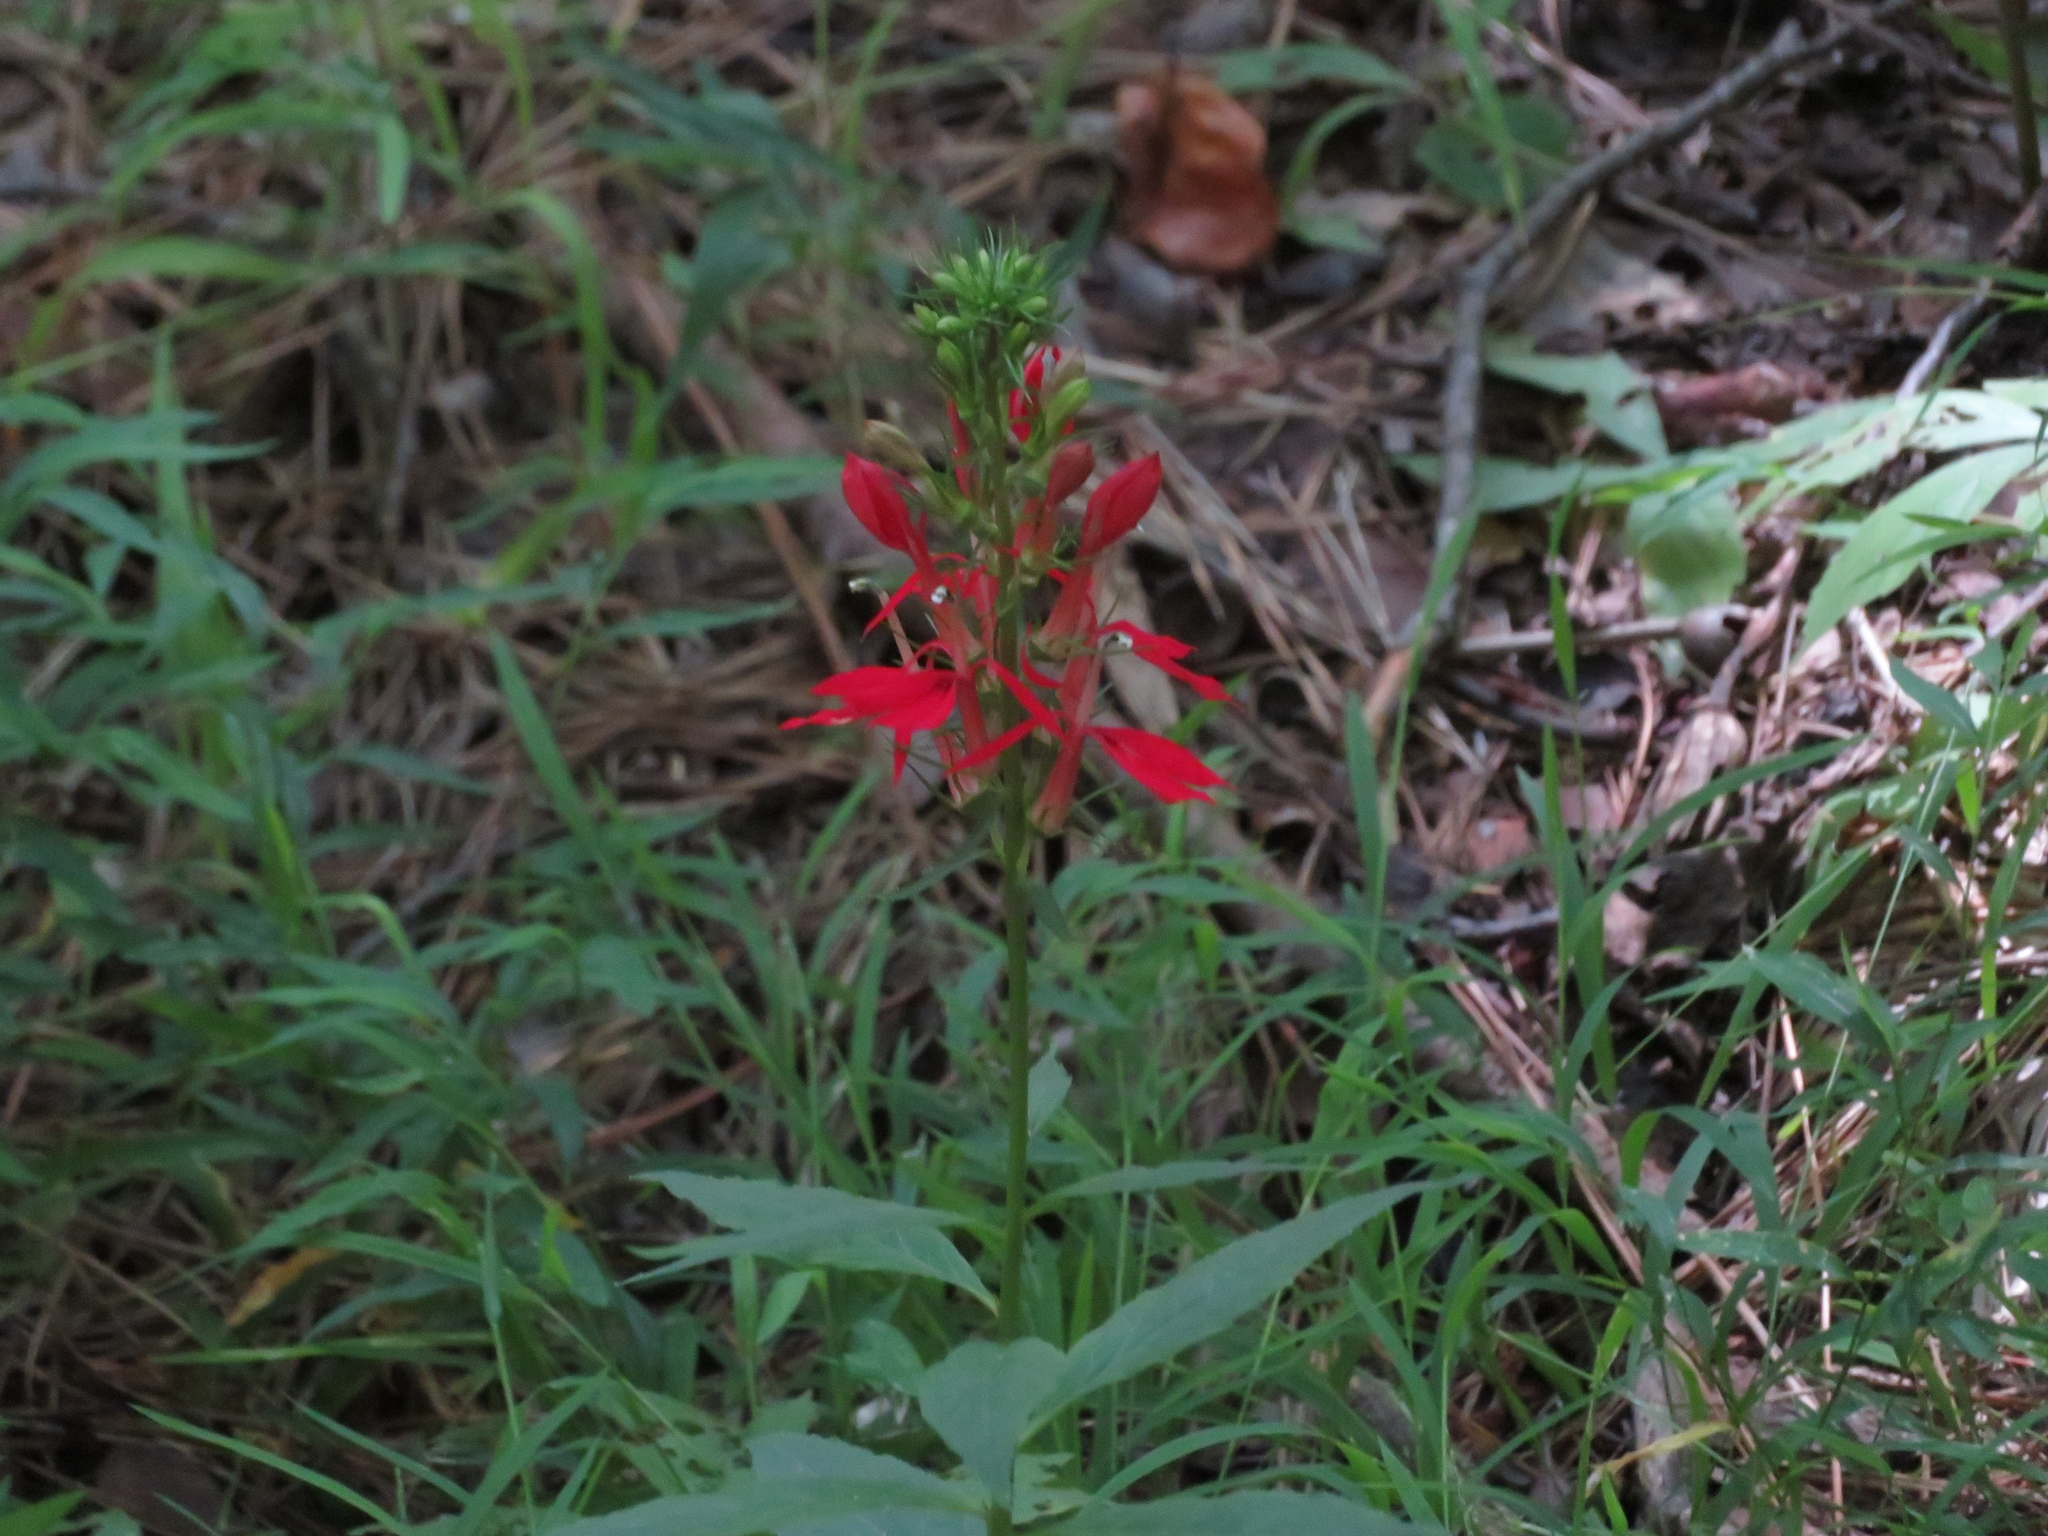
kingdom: Plantae
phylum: Tracheophyta
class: Magnoliopsida
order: Asterales
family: Campanulaceae
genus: Lobelia
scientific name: Lobelia cardinalis
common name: Cardinal flower
